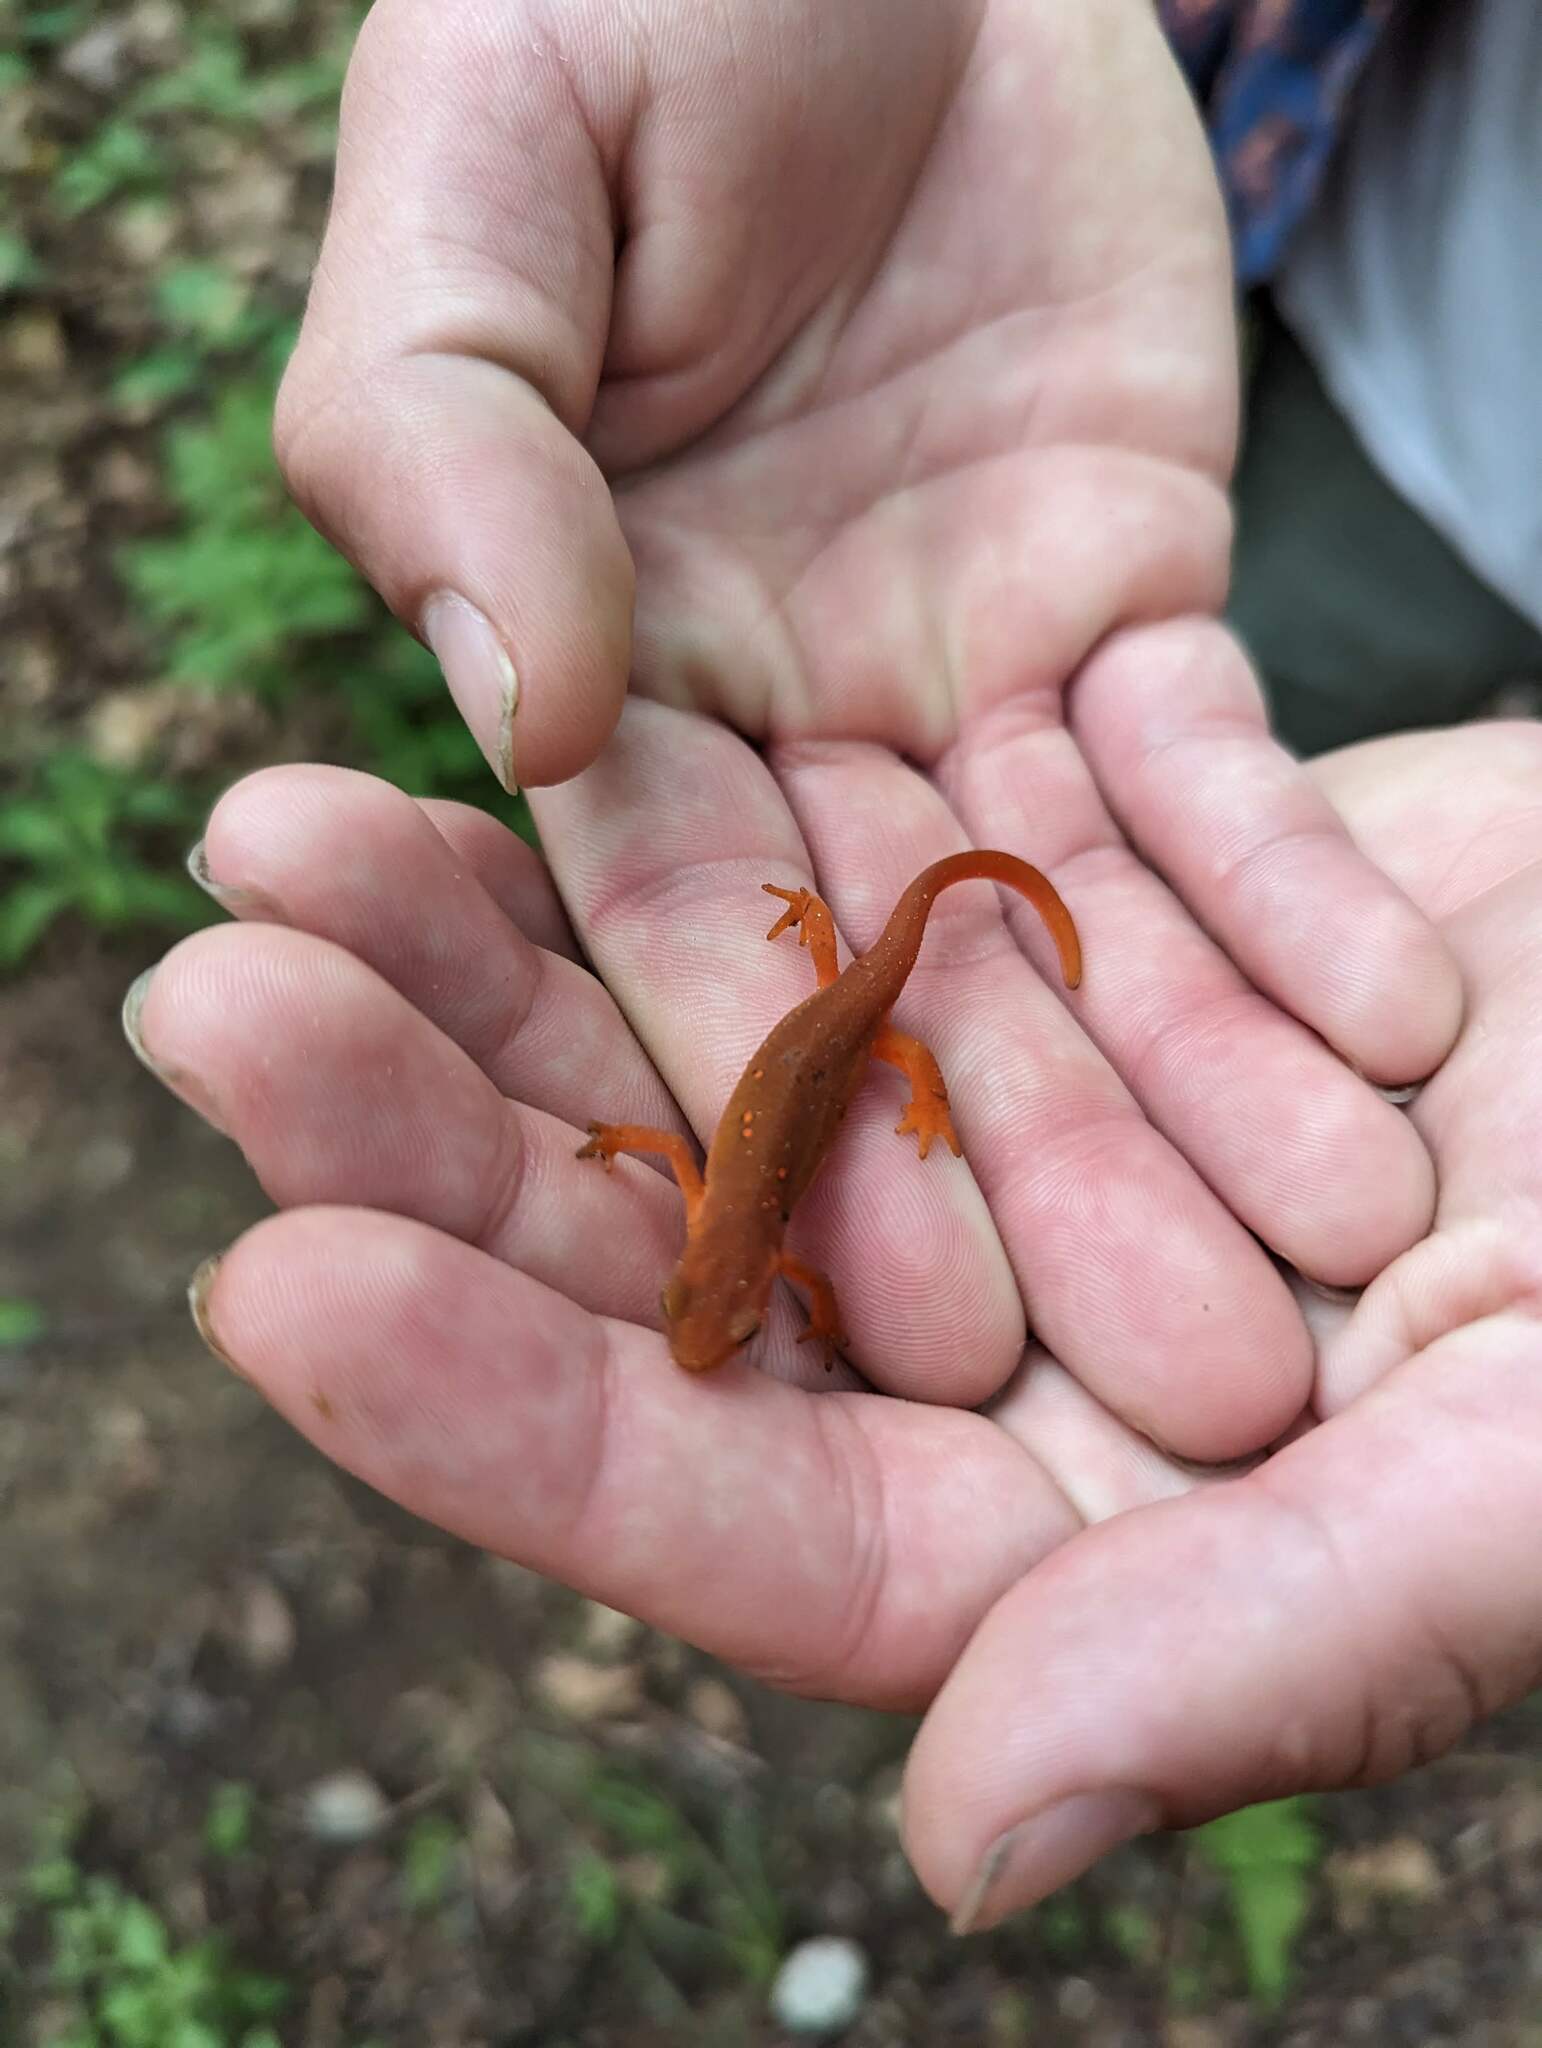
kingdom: Animalia
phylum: Chordata
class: Amphibia
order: Caudata
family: Salamandridae
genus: Notophthalmus
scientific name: Notophthalmus viridescens
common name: Eastern newt
